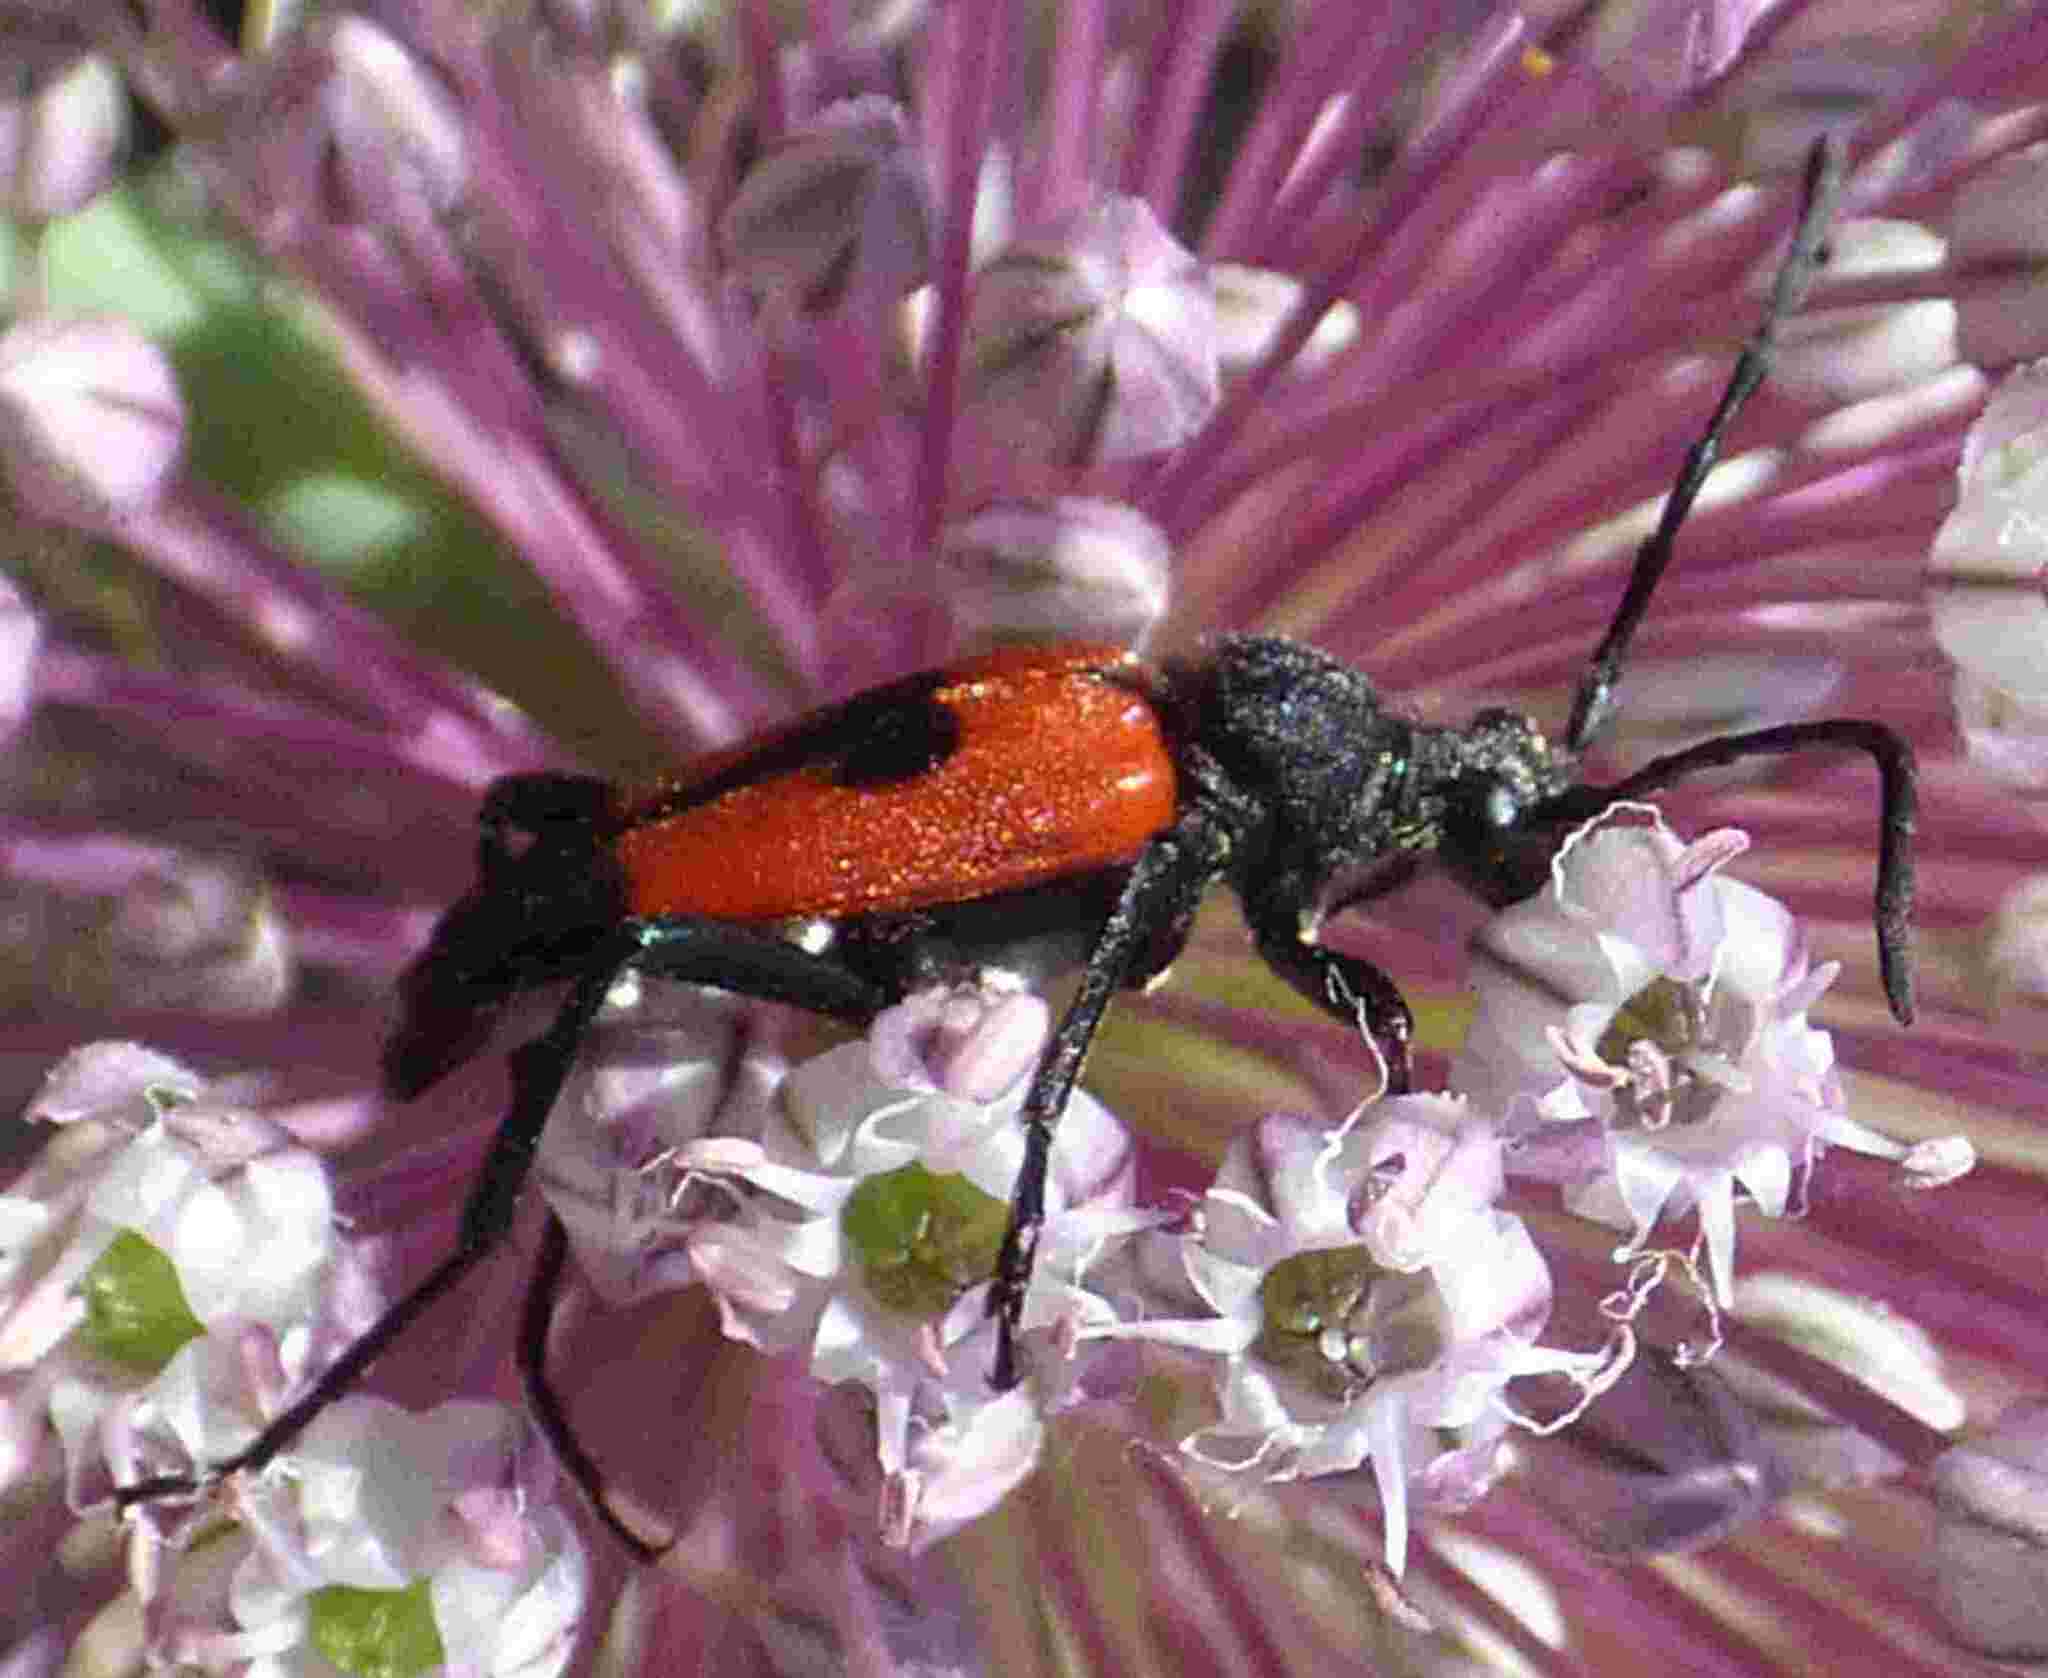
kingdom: Animalia
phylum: Arthropoda
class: Insecta
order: Coleoptera
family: Cerambycidae
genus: Stictoleptura
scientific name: Stictoleptura cordigera
